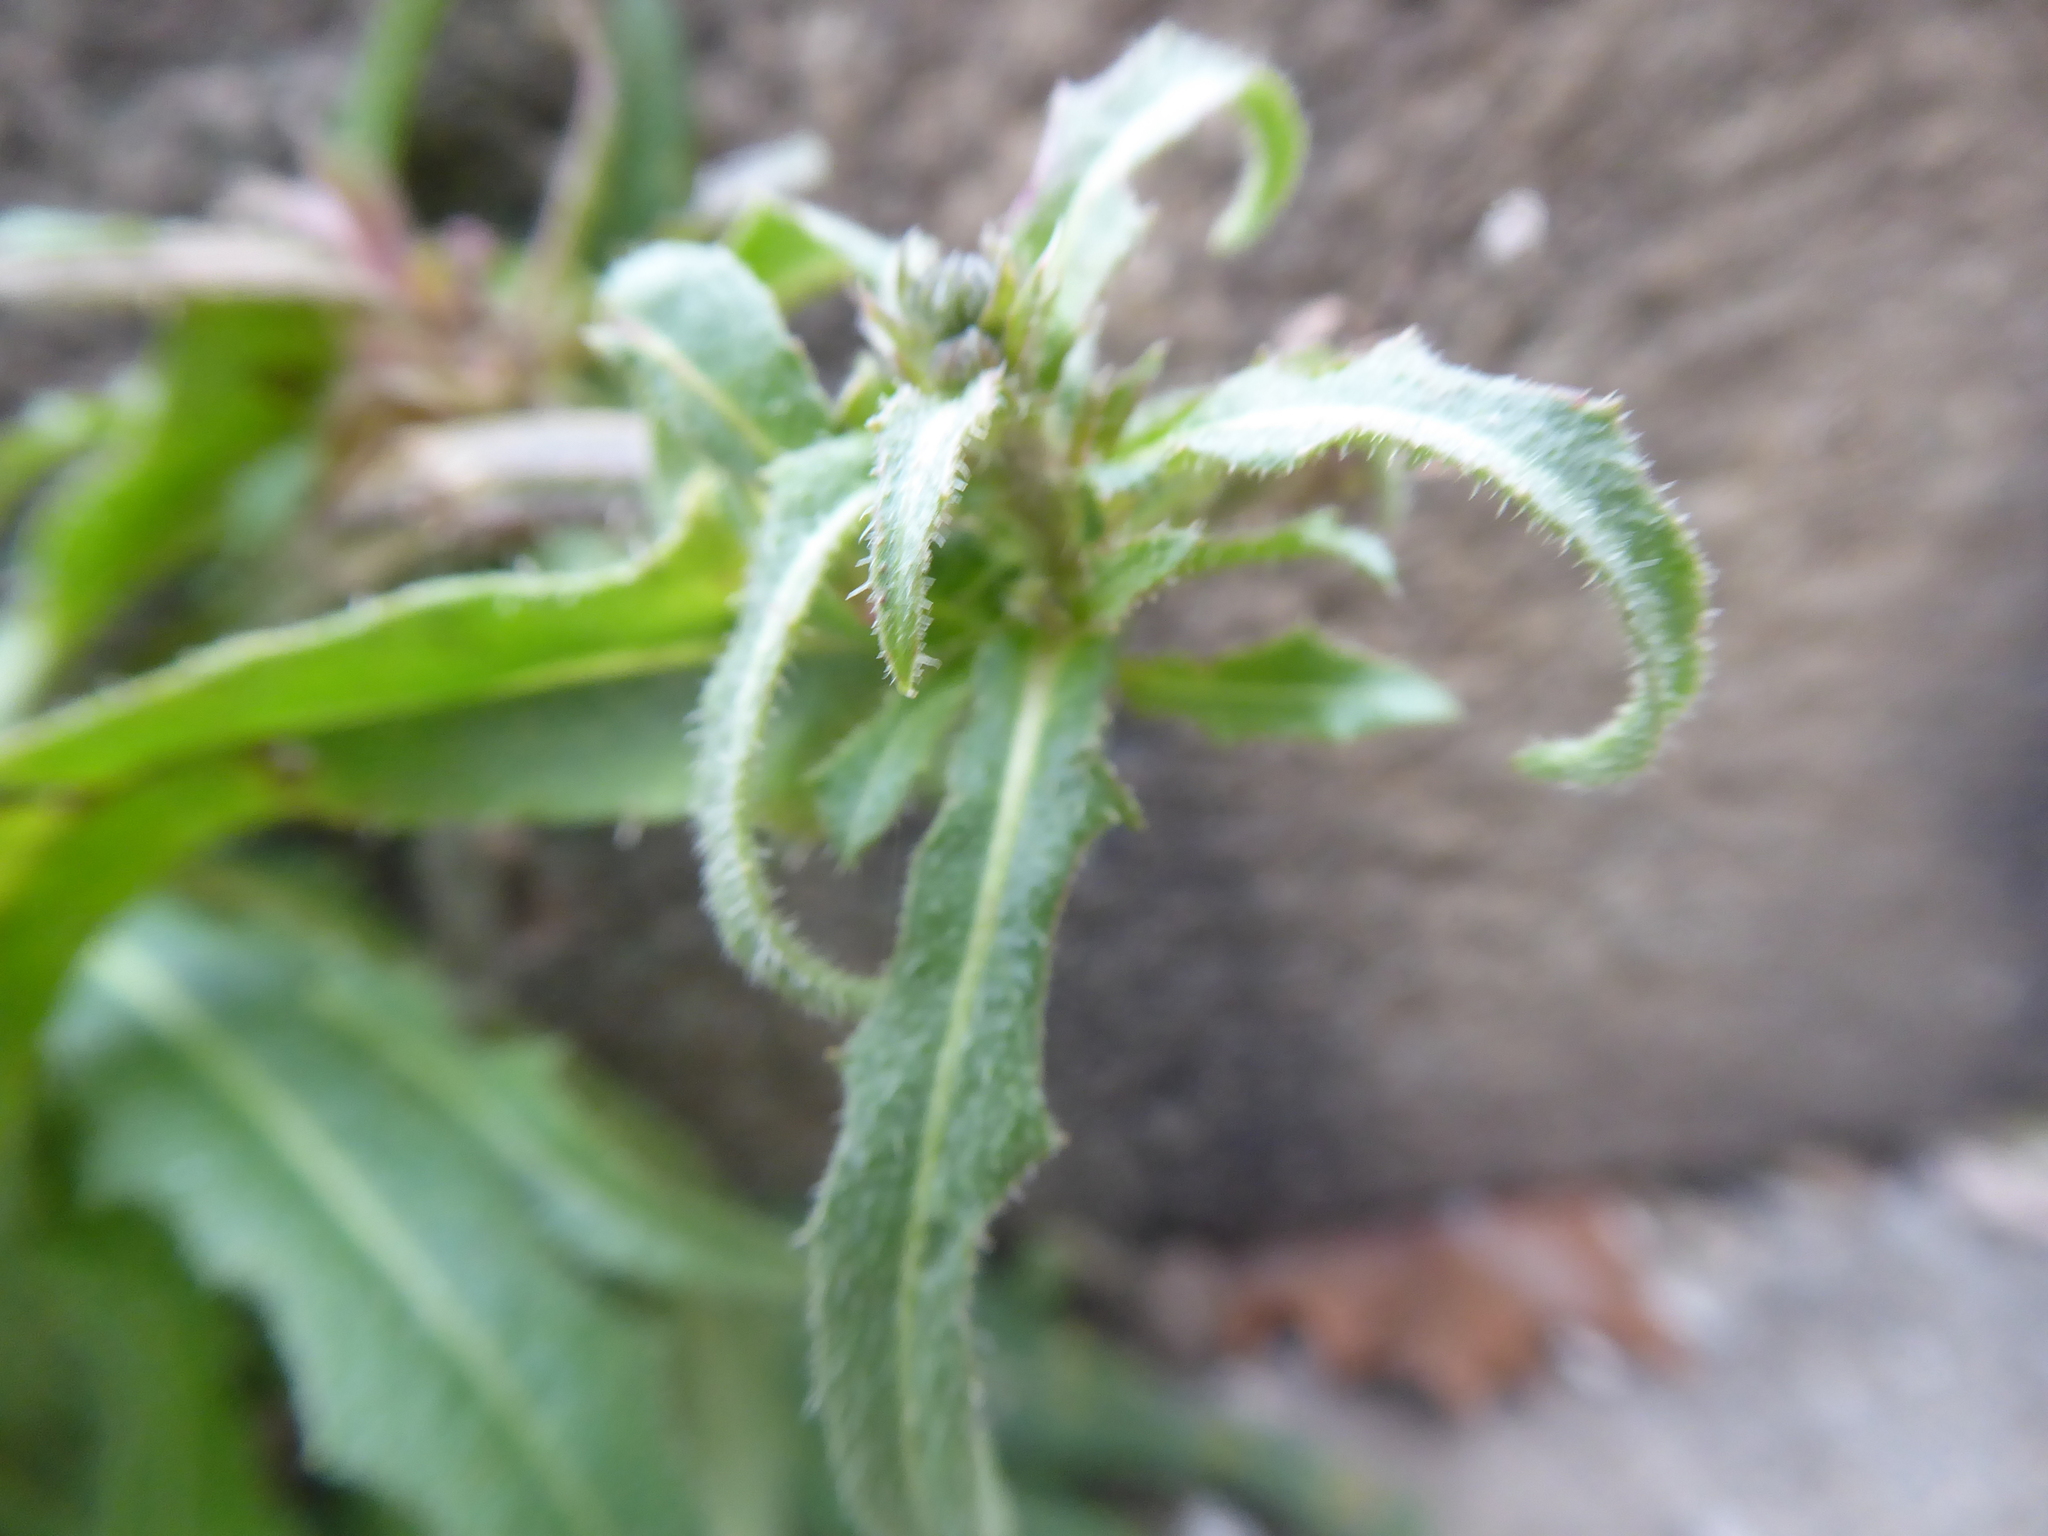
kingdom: Plantae
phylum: Tracheophyta
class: Magnoliopsida
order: Asterales
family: Asteraceae
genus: Picris
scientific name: Picris hieracioides
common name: Hawkweed oxtongue
